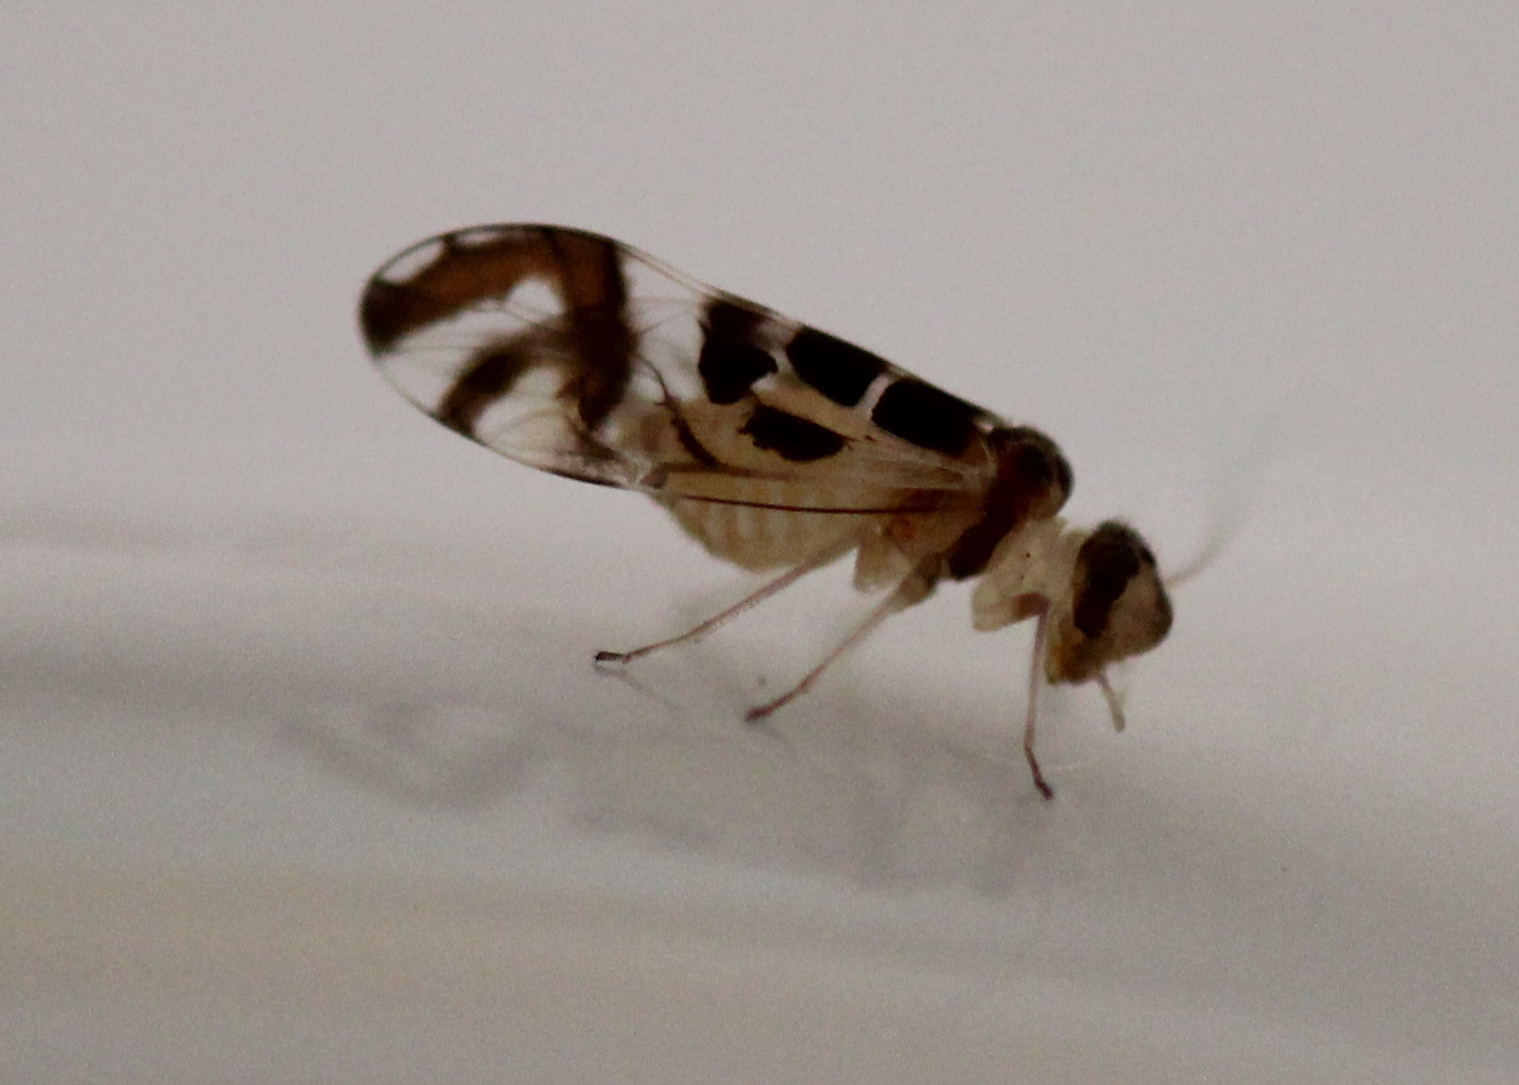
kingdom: Animalia
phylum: Arthropoda
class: Insecta
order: Psocodea
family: Stenopsocidae
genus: Graphopsocus
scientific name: Graphopsocus cruciatus
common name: Lizard bark louse
